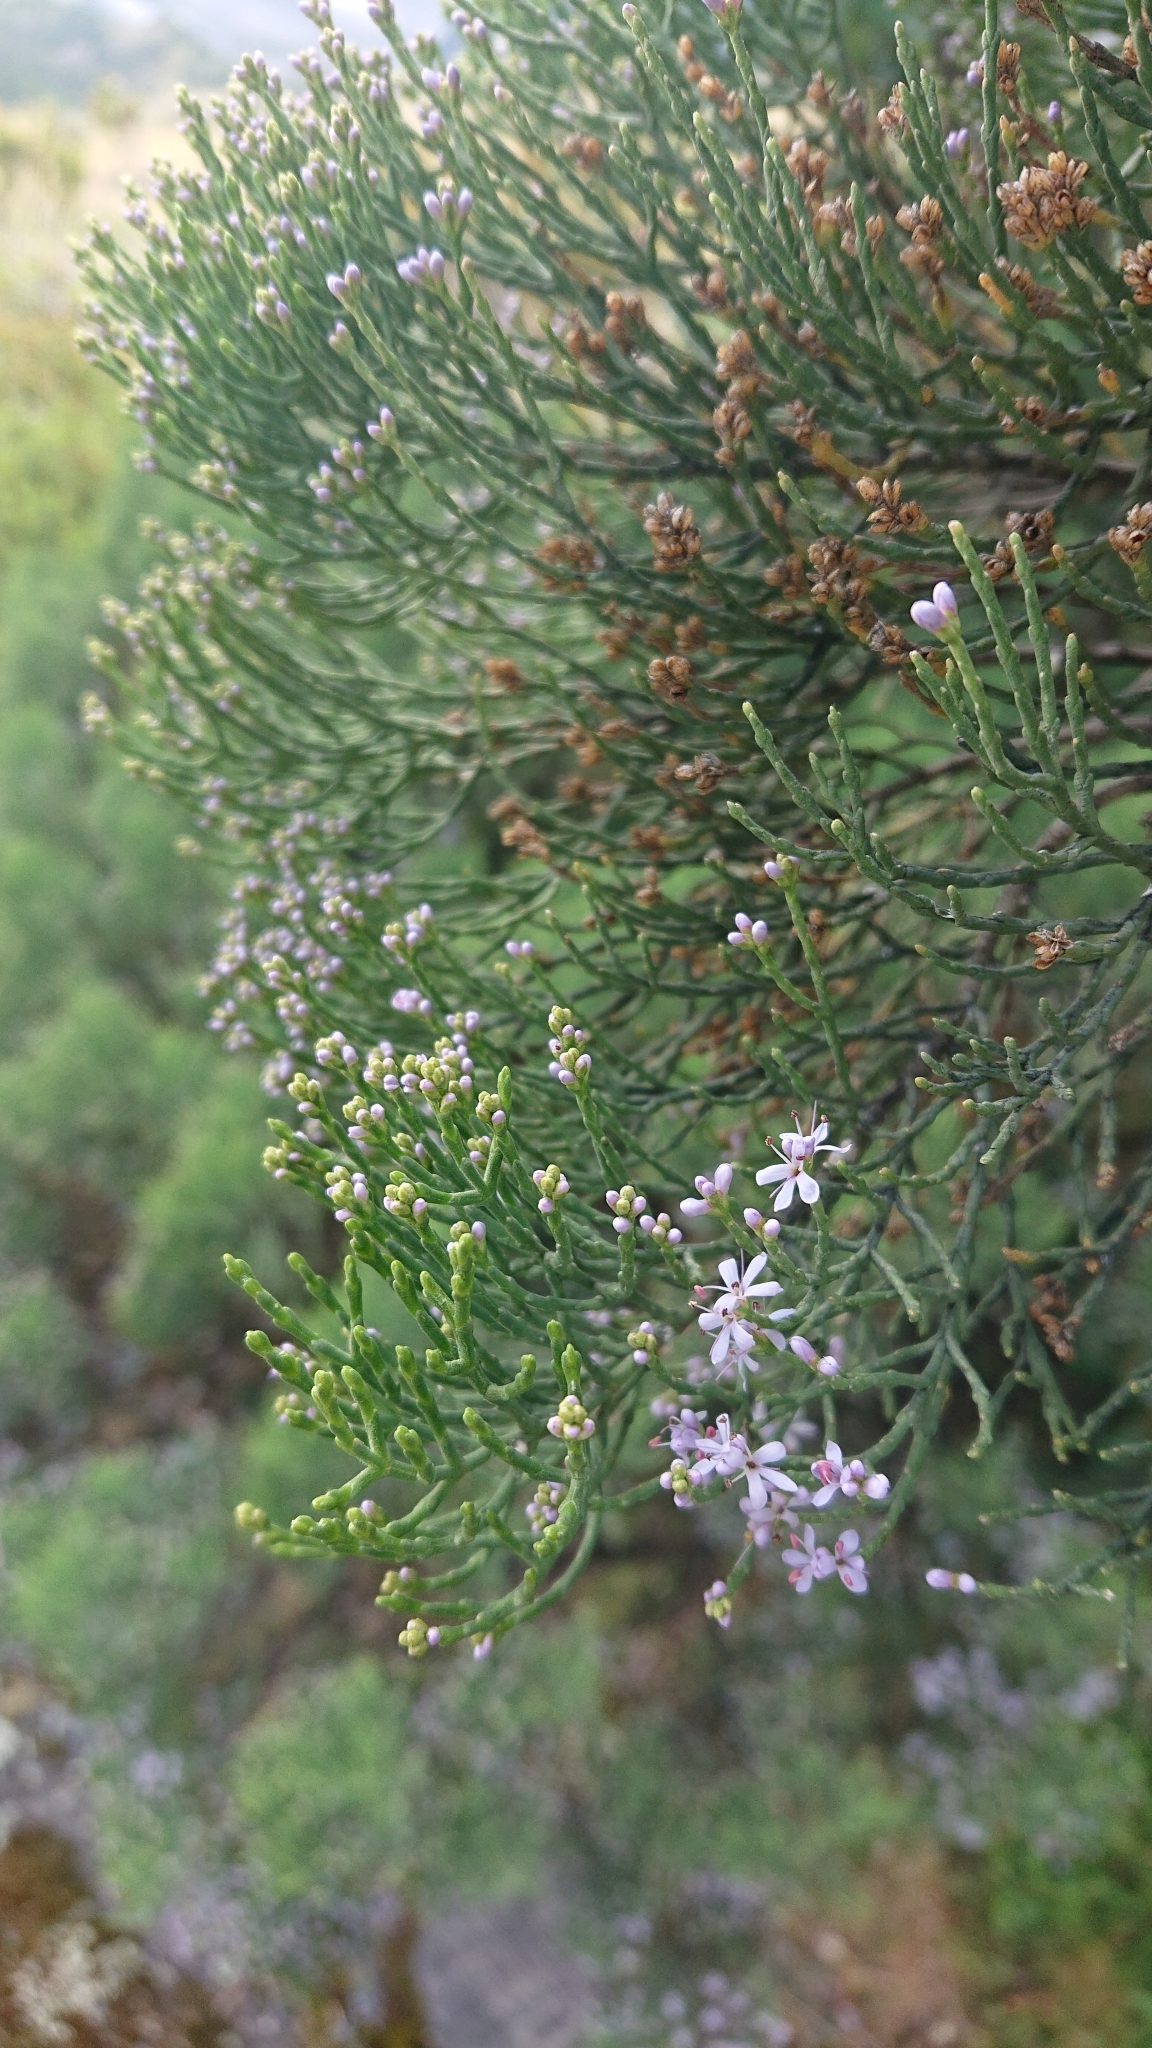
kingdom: Plantae
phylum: Tracheophyta
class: Magnoliopsida
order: Lamiales
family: Plantaginaceae
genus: Veronica
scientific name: Veronica cupressoides
